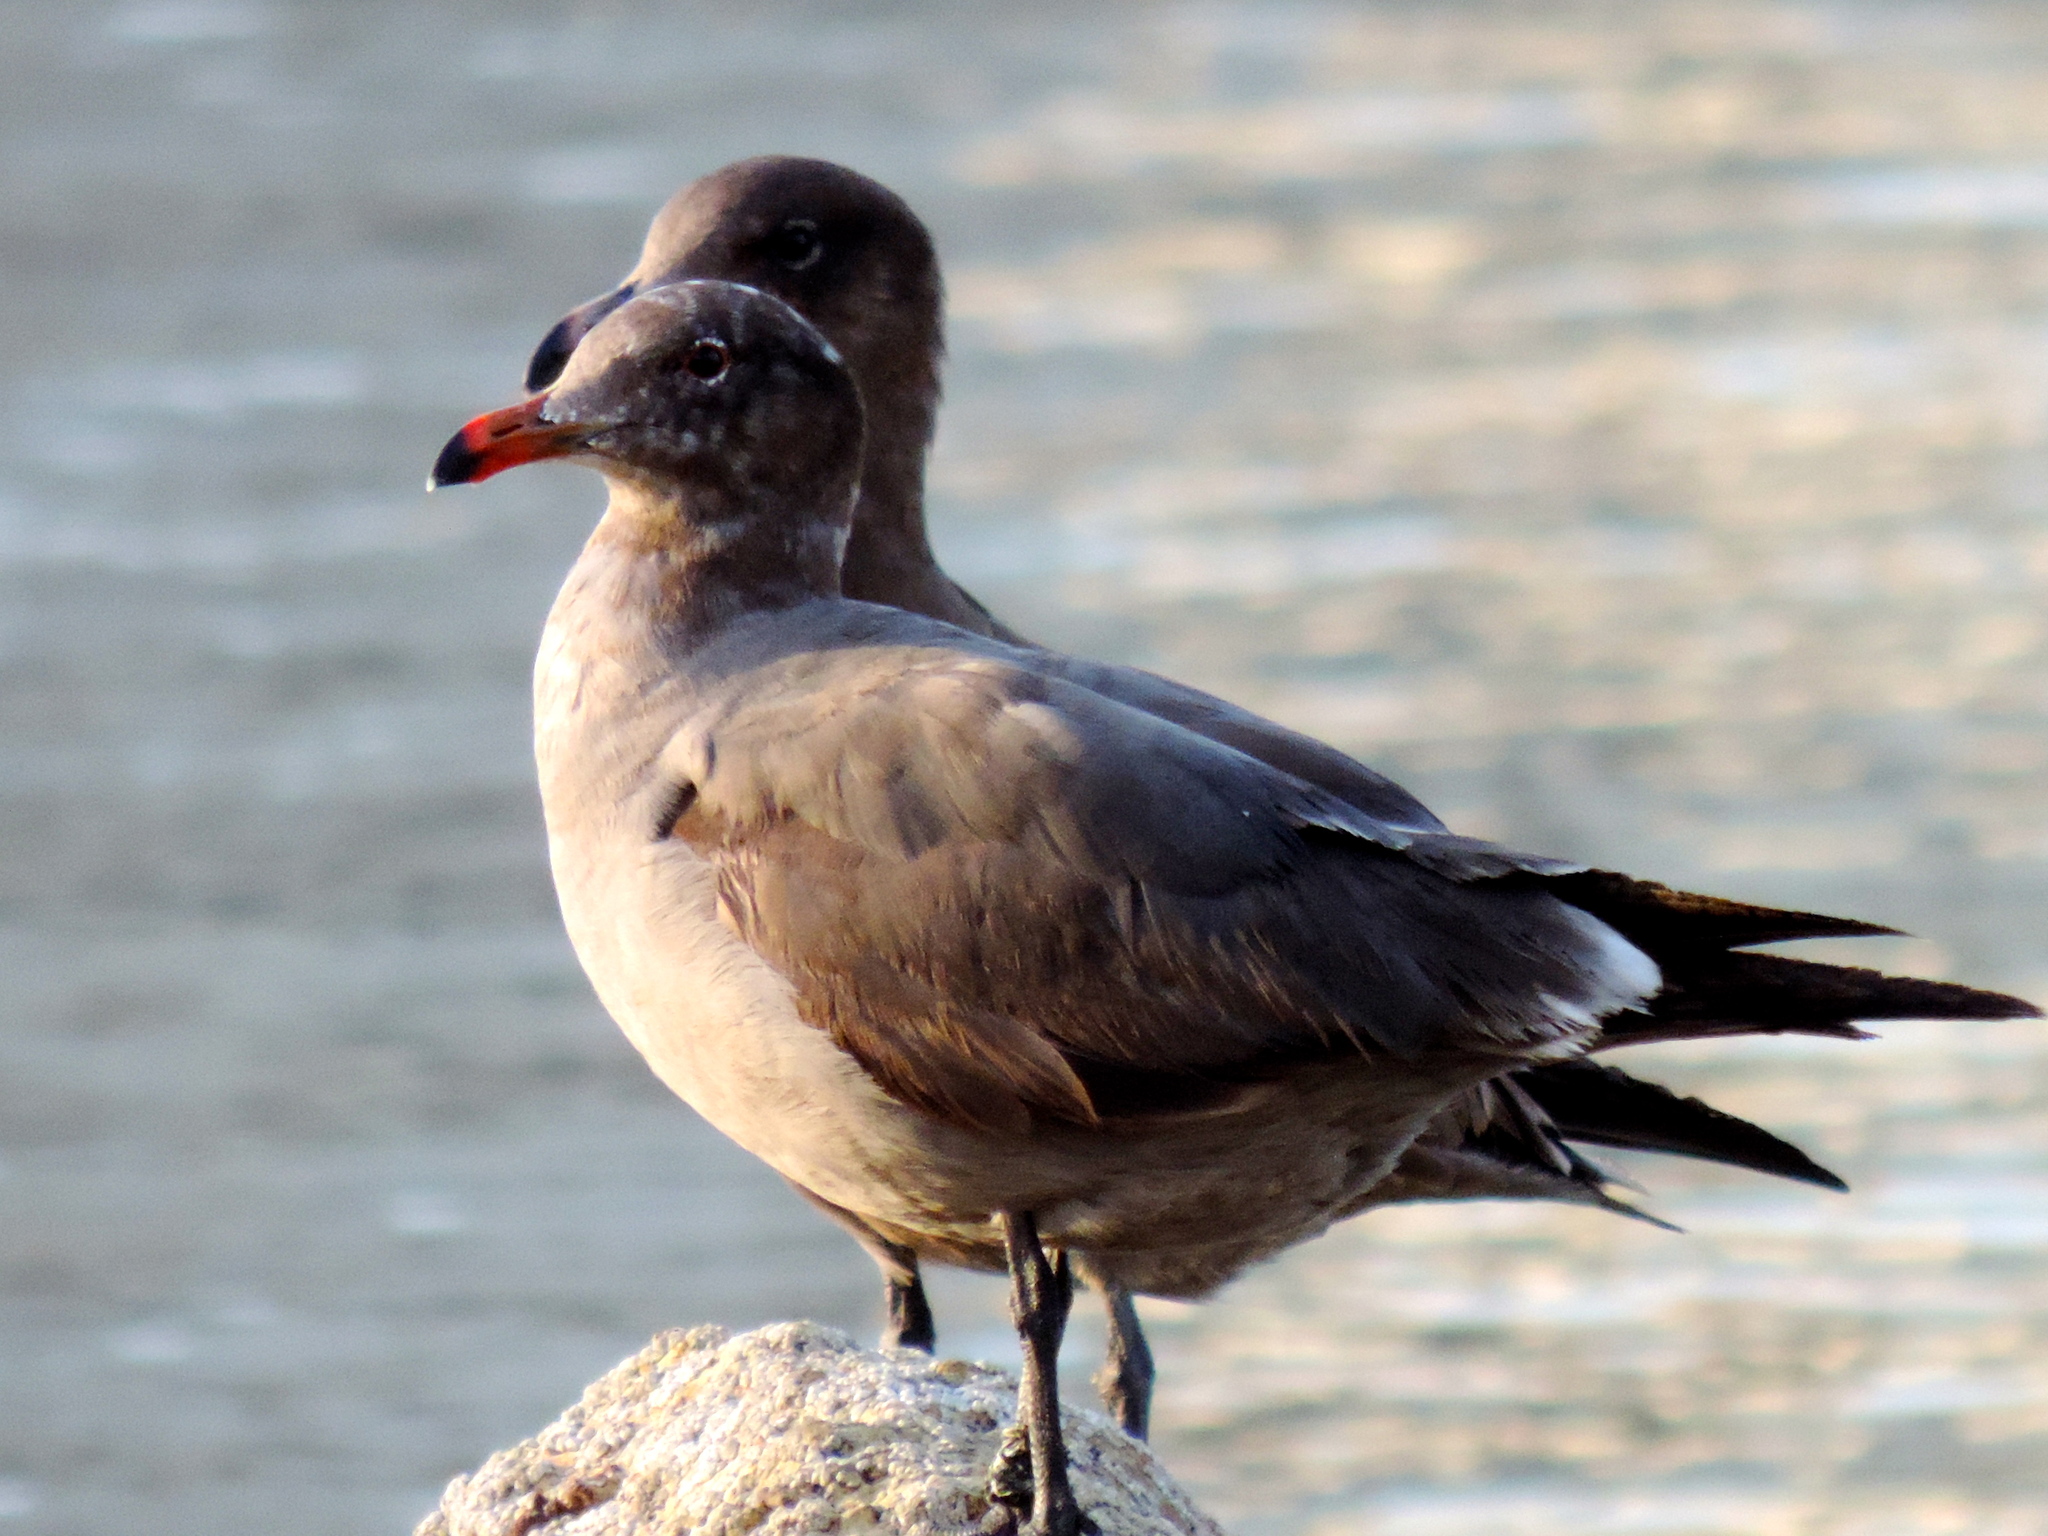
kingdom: Animalia
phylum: Chordata
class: Aves
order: Charadriiformes
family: Laridae
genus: Larus
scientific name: Larus heermanni
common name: Heermann's gull
